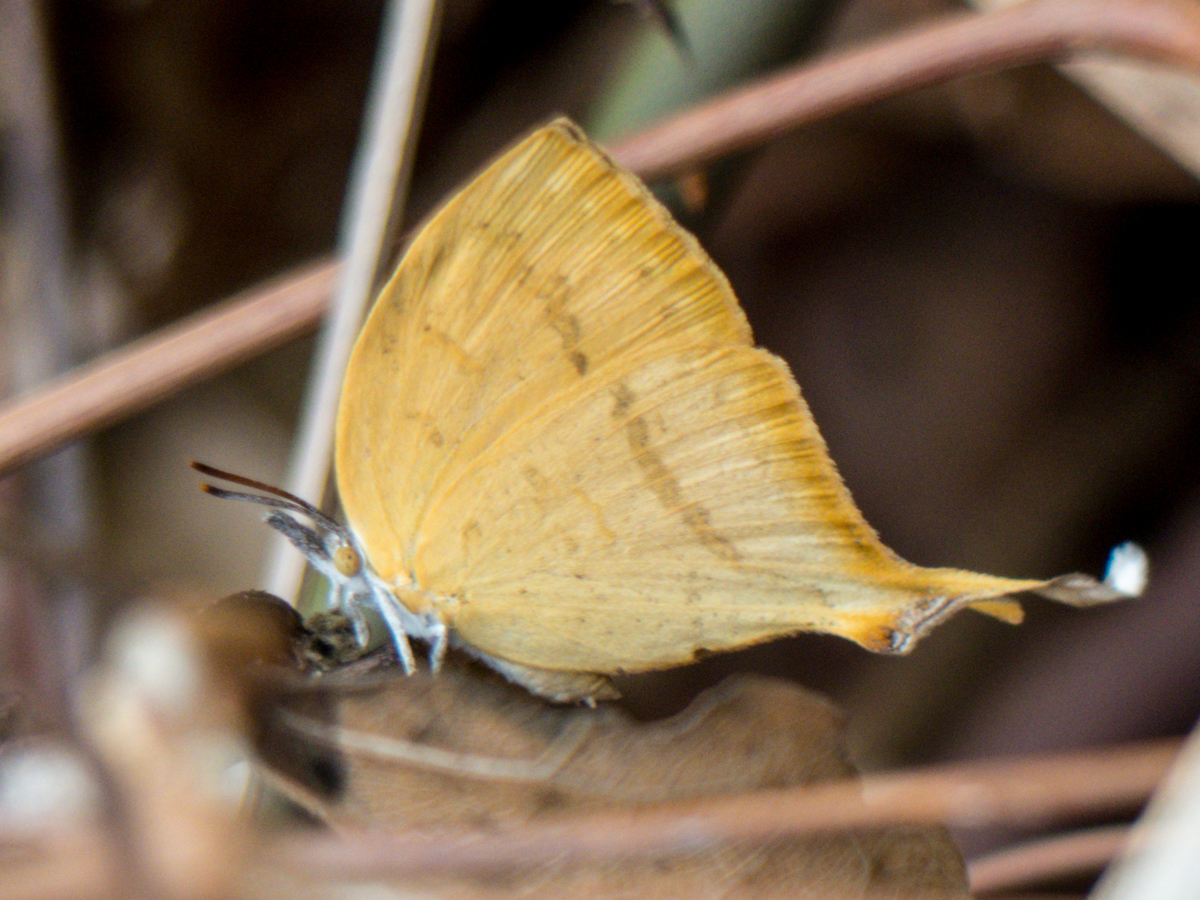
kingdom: Animalia
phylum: Arthropoda
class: Insecta
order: Lepidoptera
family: Lycaenidae
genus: Loxura
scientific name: Loxura atymnus
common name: Common yamfly
